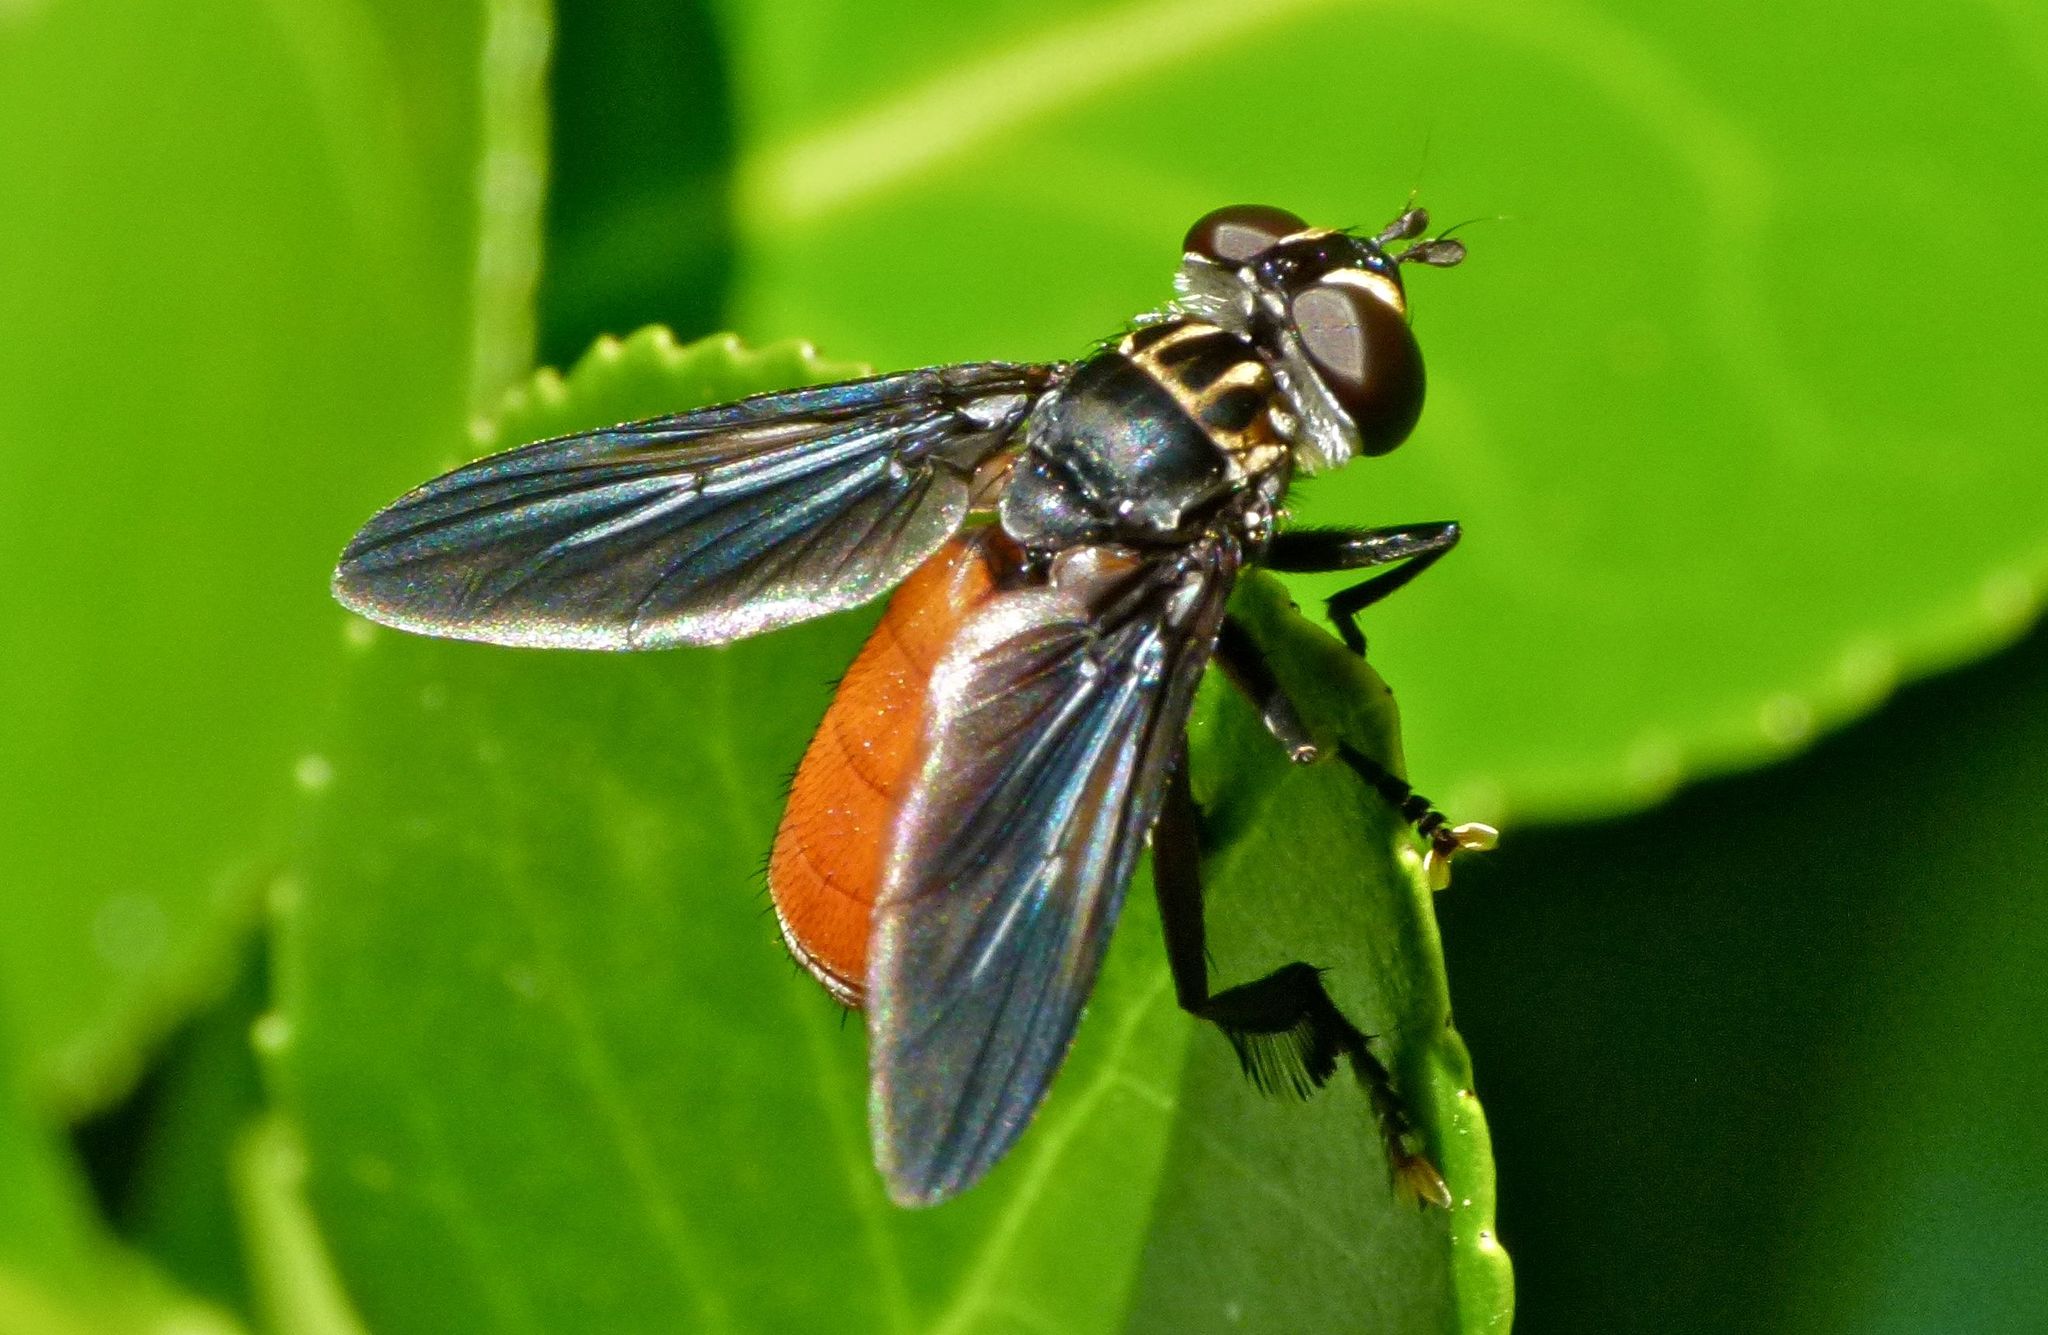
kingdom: Animalia
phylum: Arthropoda
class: Insecta
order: Diptera
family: Tachinidae
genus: Trichopoda
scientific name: Trichopoda pennipes
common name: Tachinid fly
